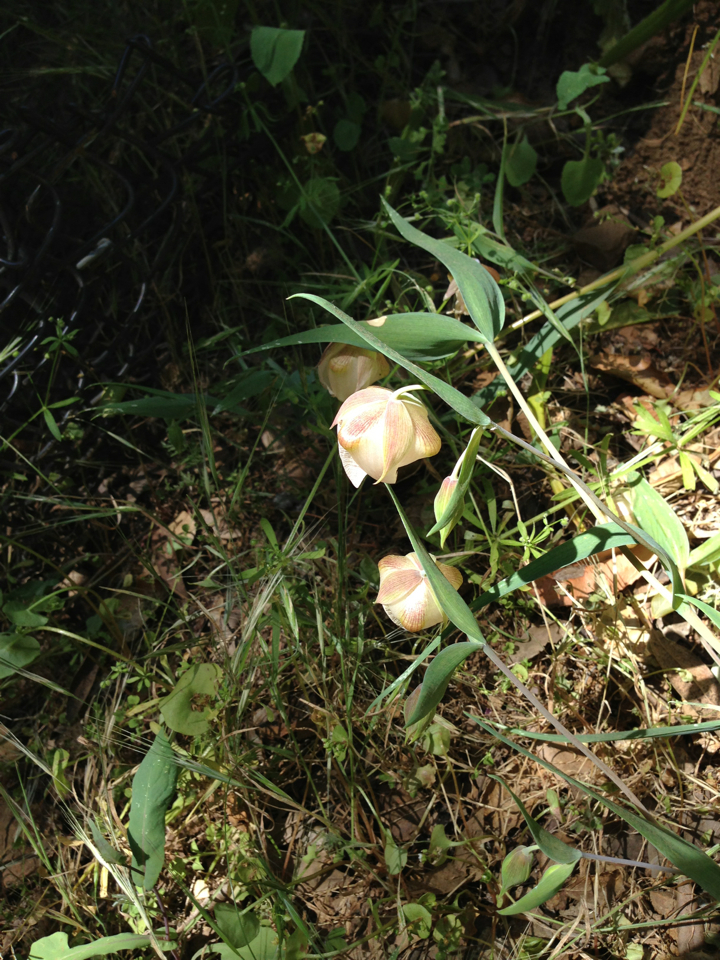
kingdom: Plantae
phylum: Tracheophyta
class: Liliopsida
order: Liliales
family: Liliaceae
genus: Calochortus
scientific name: Calochortus albus
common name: Fairy-lantern
